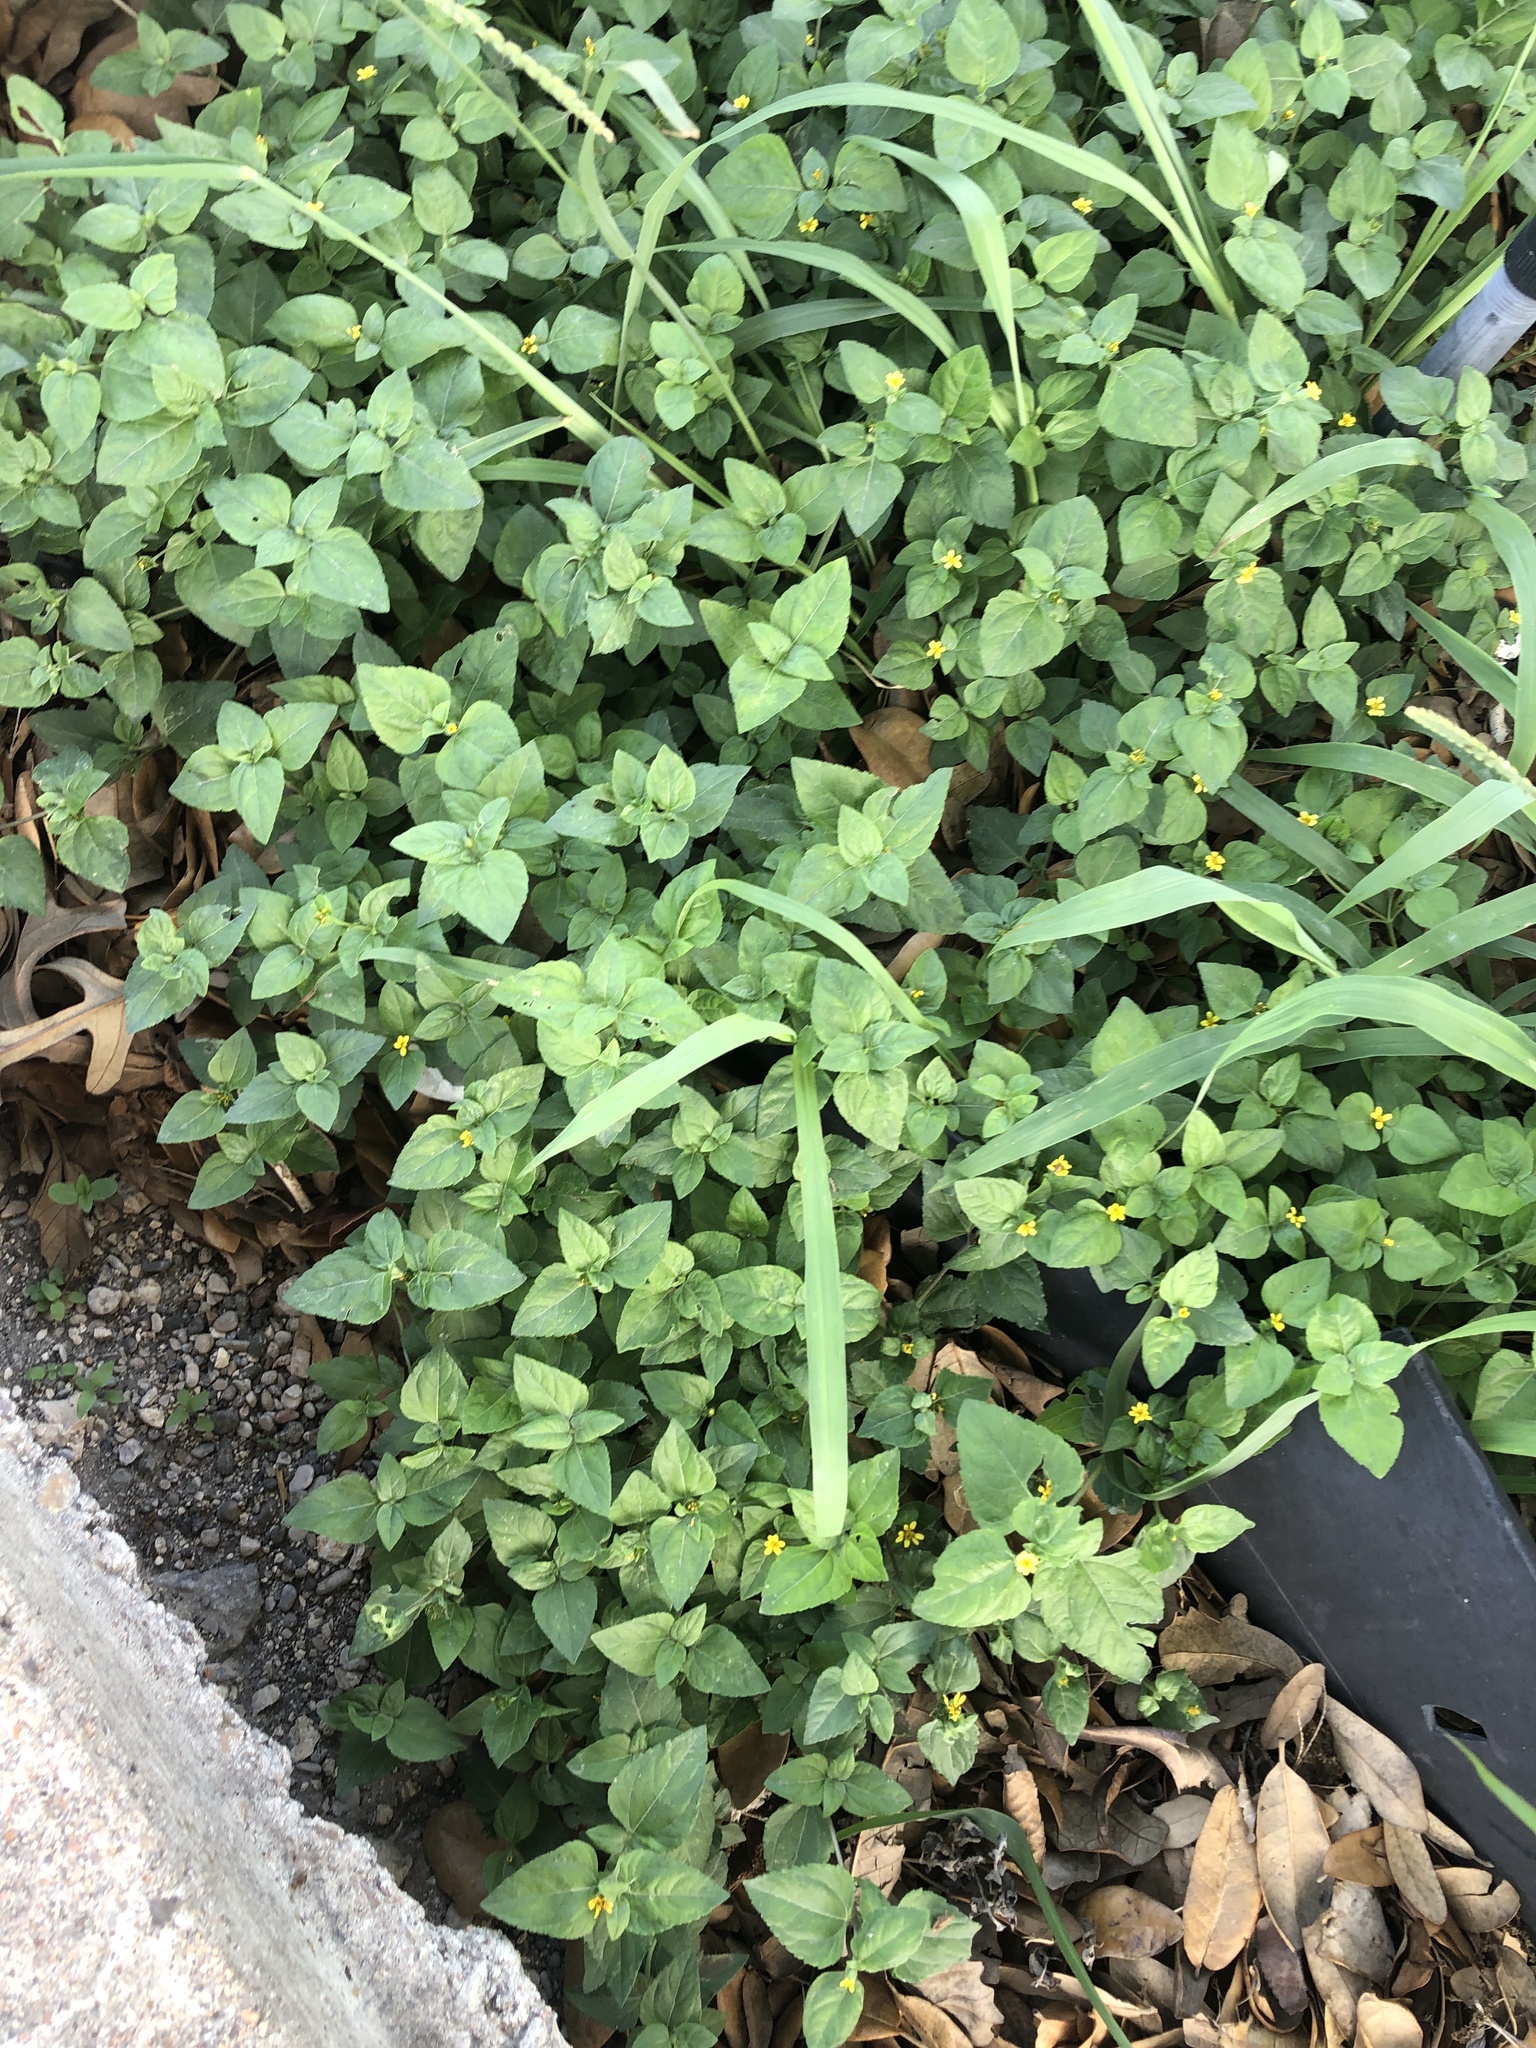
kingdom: Plantae
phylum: Tracheophyta
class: Magnoliopsida
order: Asterales
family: Asteraceae
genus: Calyptocarpus
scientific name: Calyptocarpus vialis
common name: Straggler daisy
